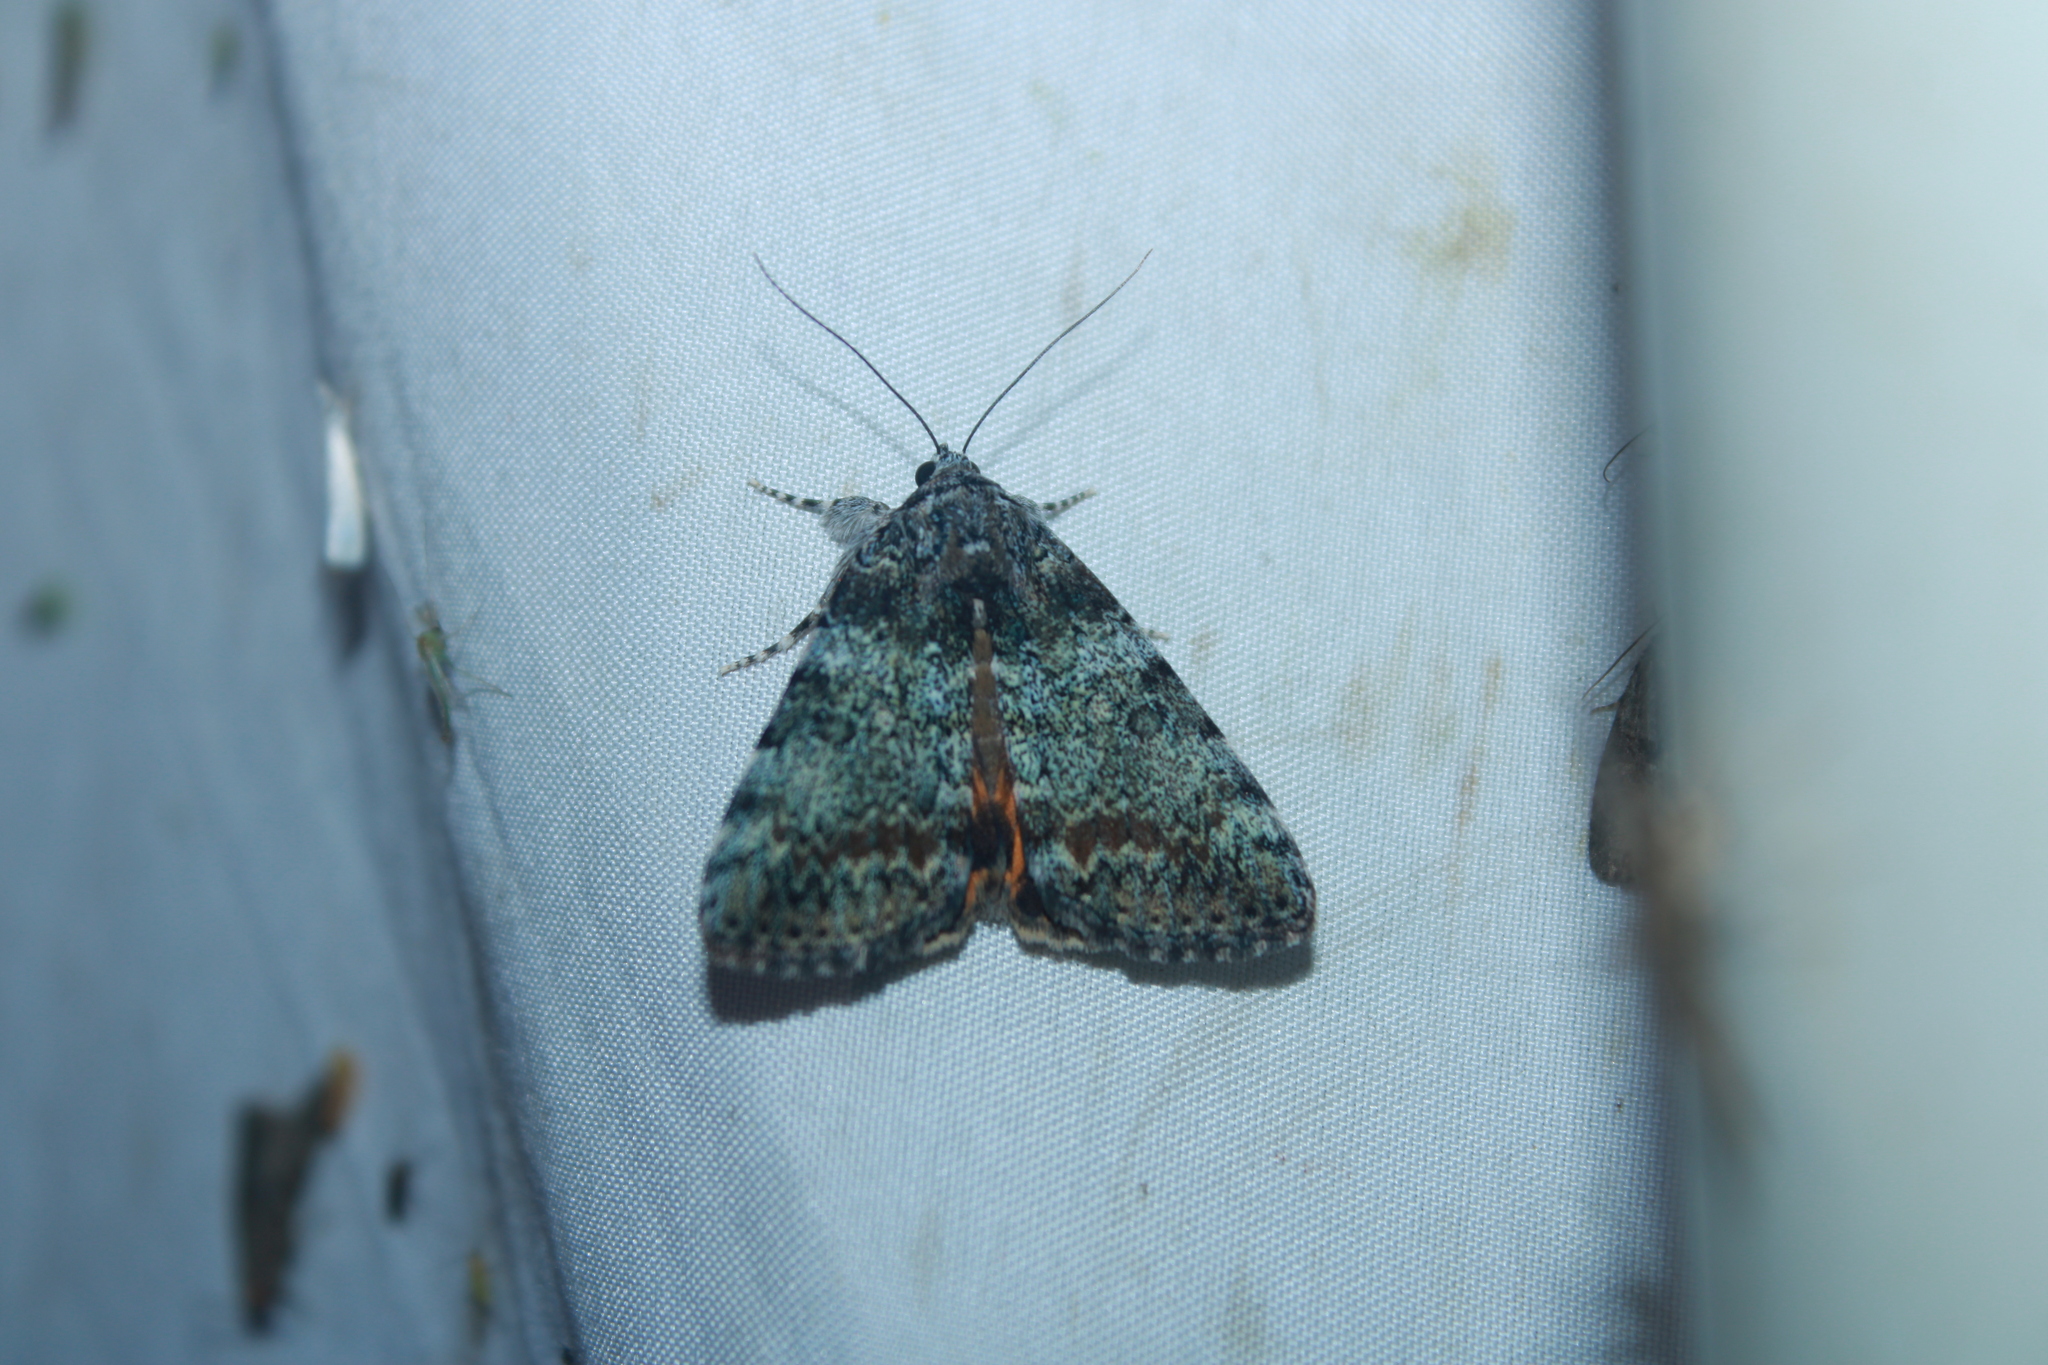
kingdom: Animalia
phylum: Arthropoda
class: Insecta
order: Lepidoptera
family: Erebidae
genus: Catocala
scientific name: Catocala connubialis
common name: Connubial underwing
